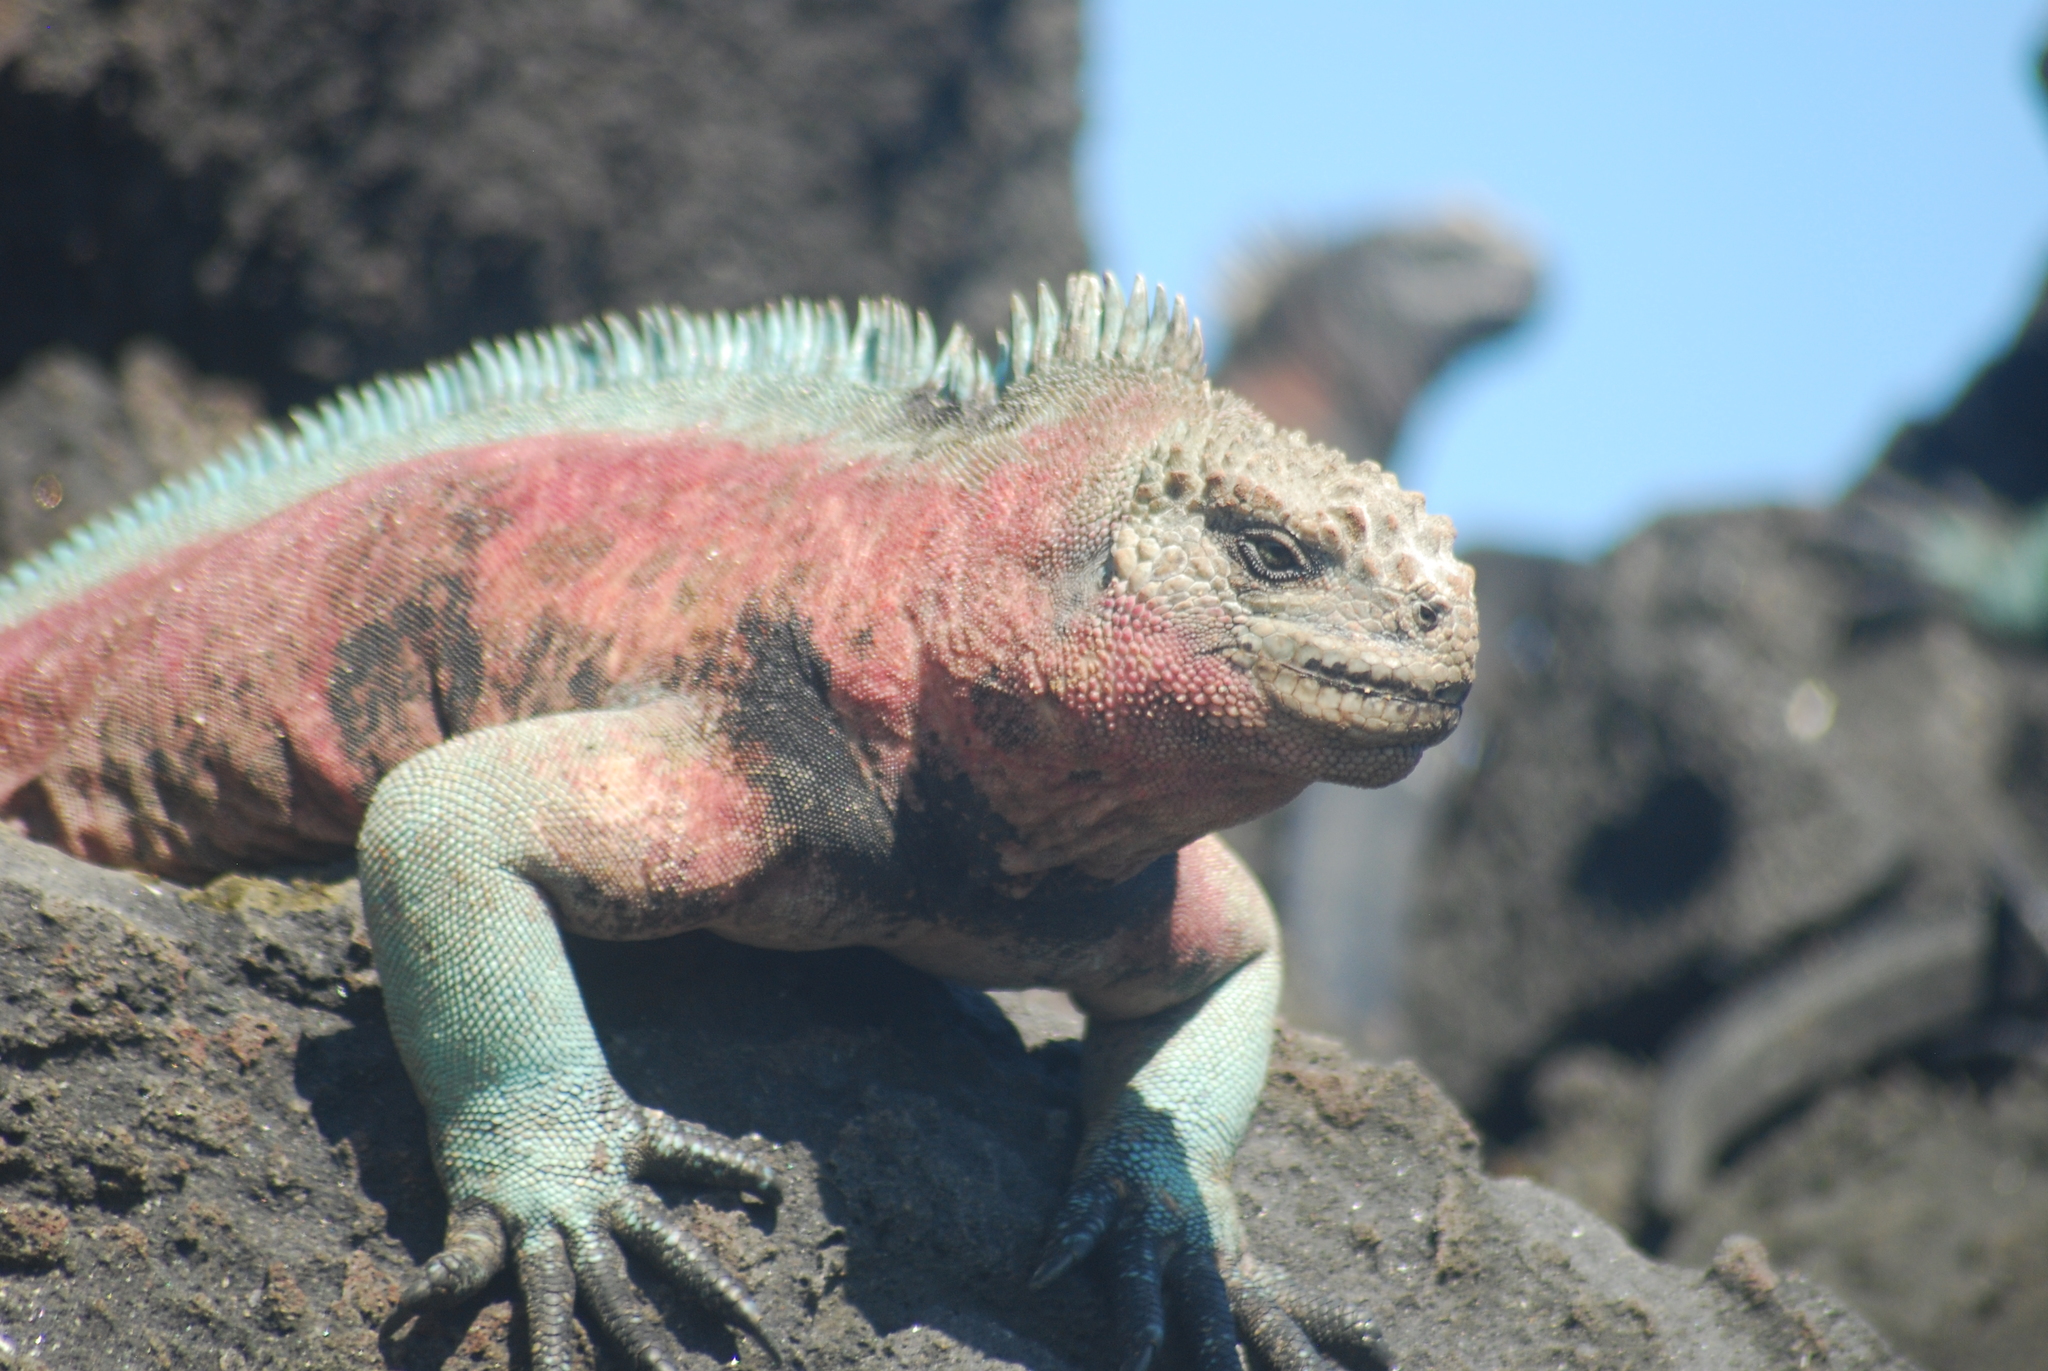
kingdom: Animalia
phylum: Chordata
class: Squamata
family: Iguanidae
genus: Amblyrhynchus
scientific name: Amblyrhynchus cristatus
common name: Marine iguana
